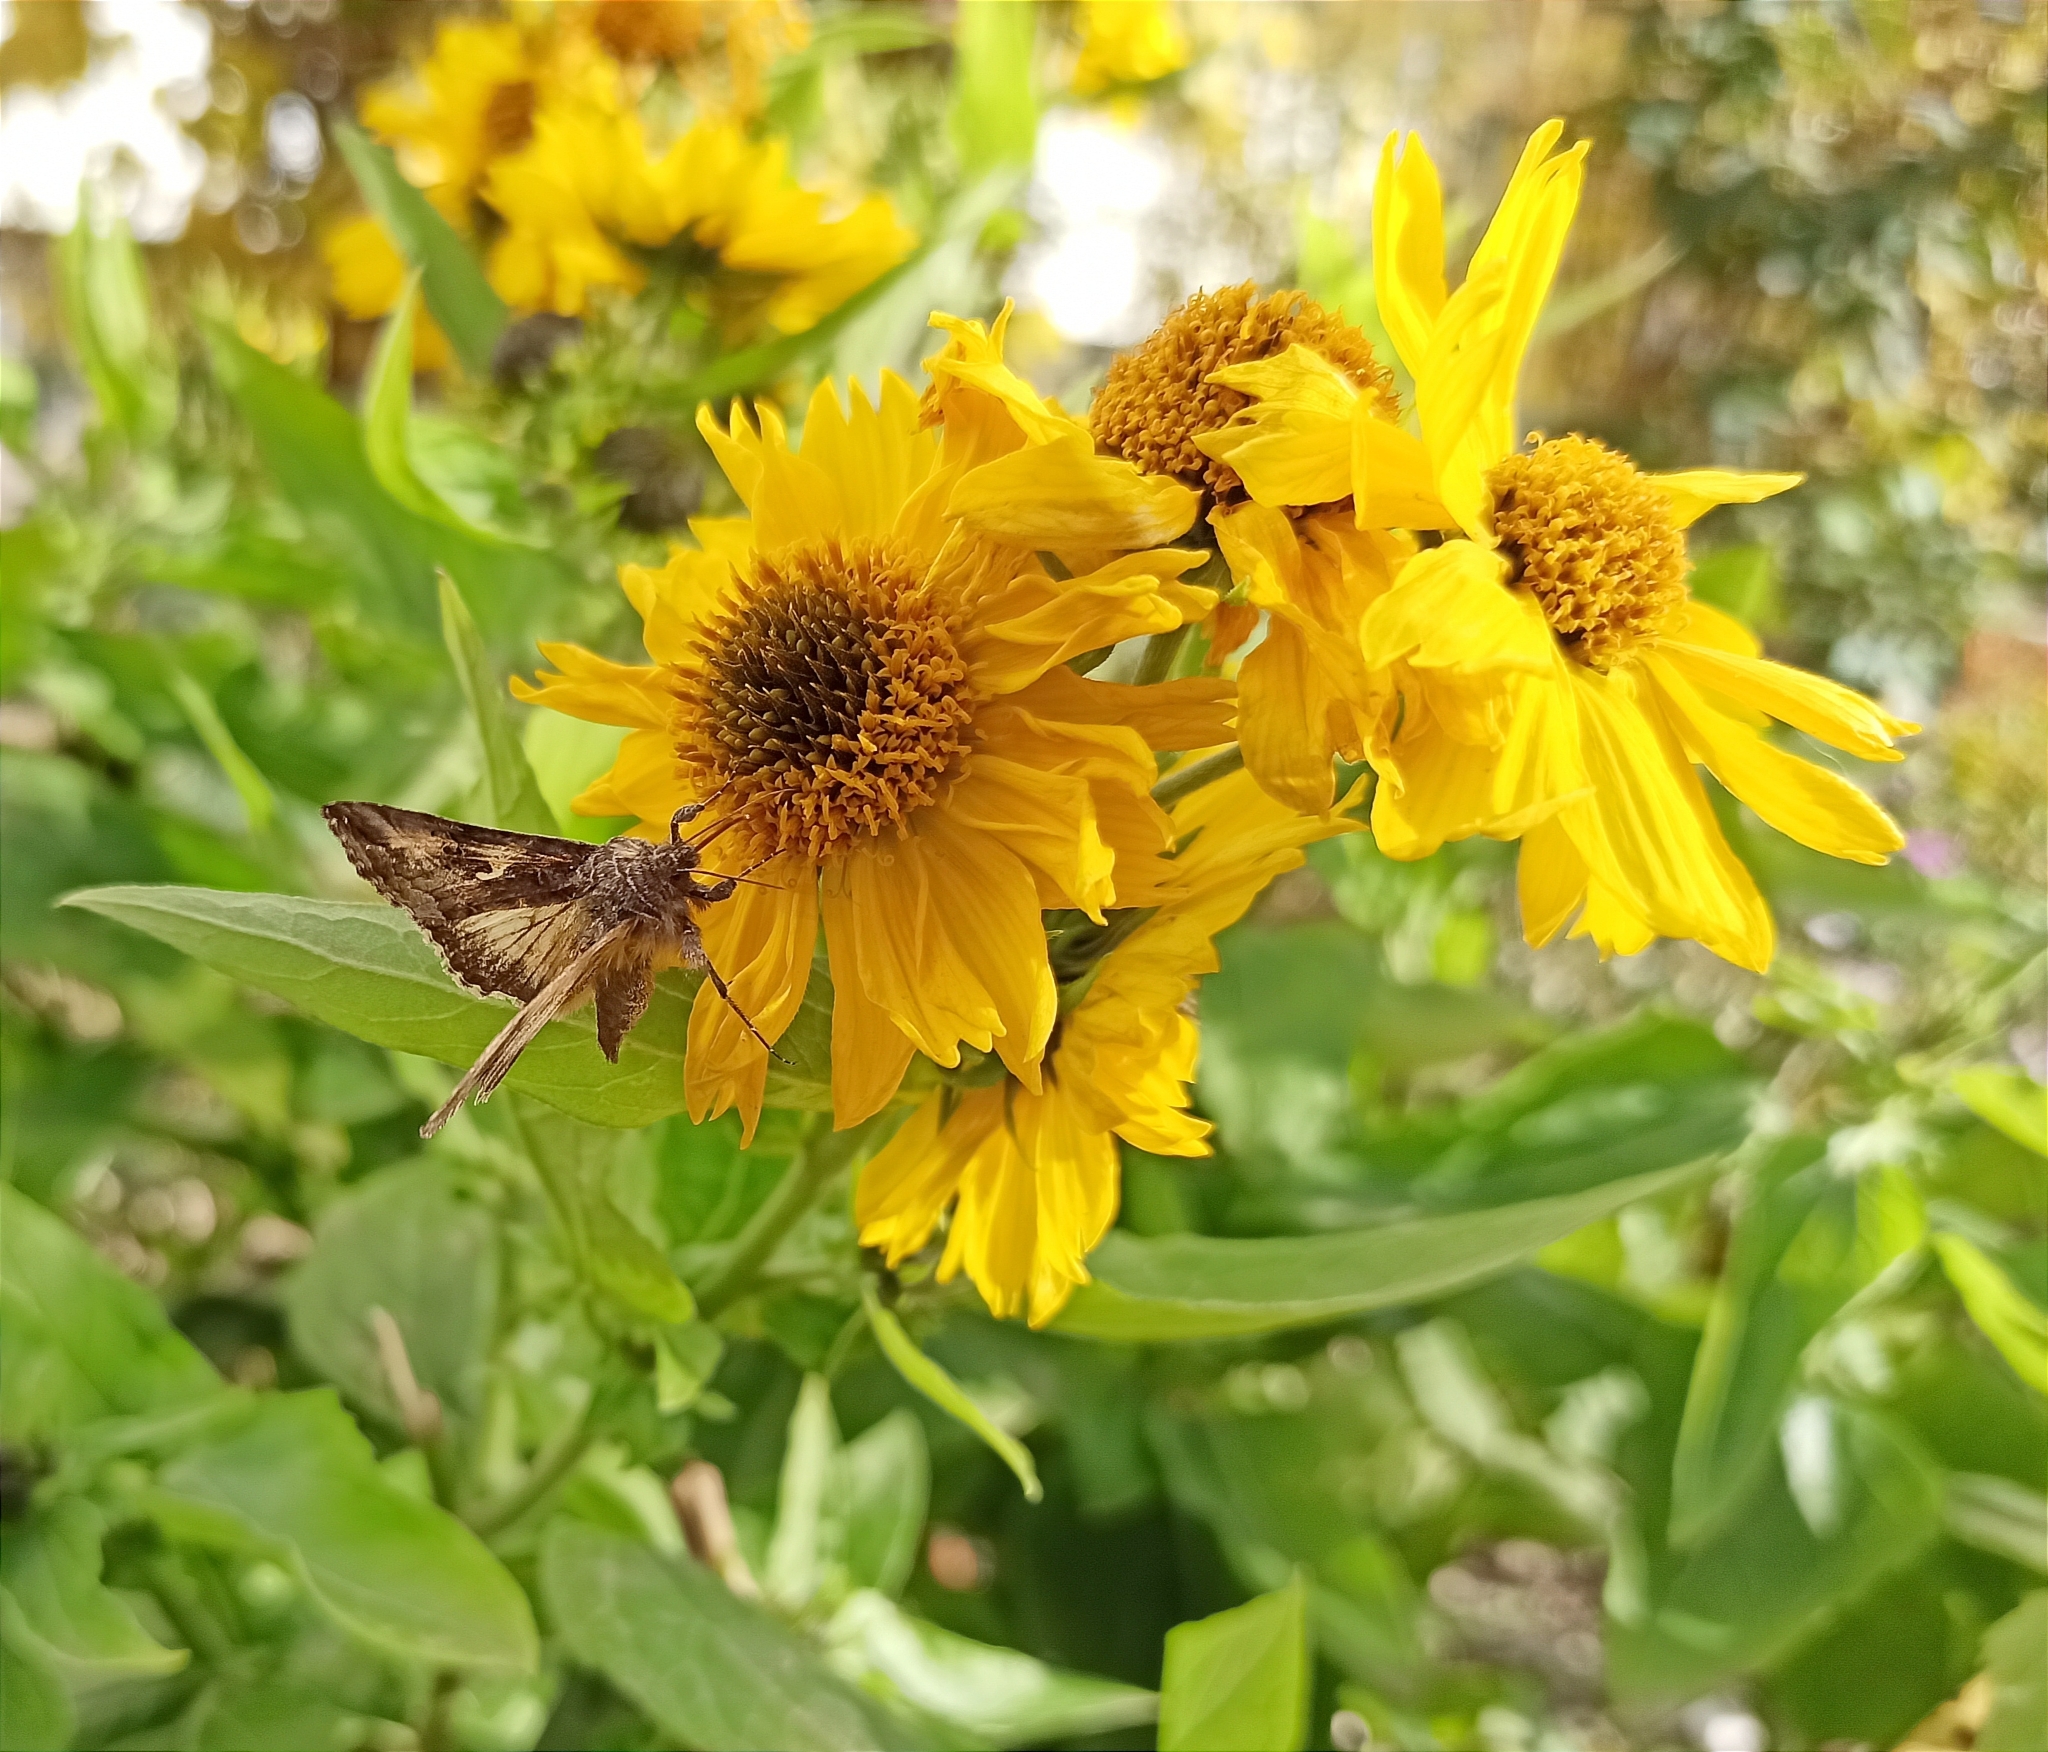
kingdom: Animalia
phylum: Arthropoda
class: Insecta
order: Lepidoptera
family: Noctuidae
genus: Autographa
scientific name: Autographa gamma
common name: Silver y
